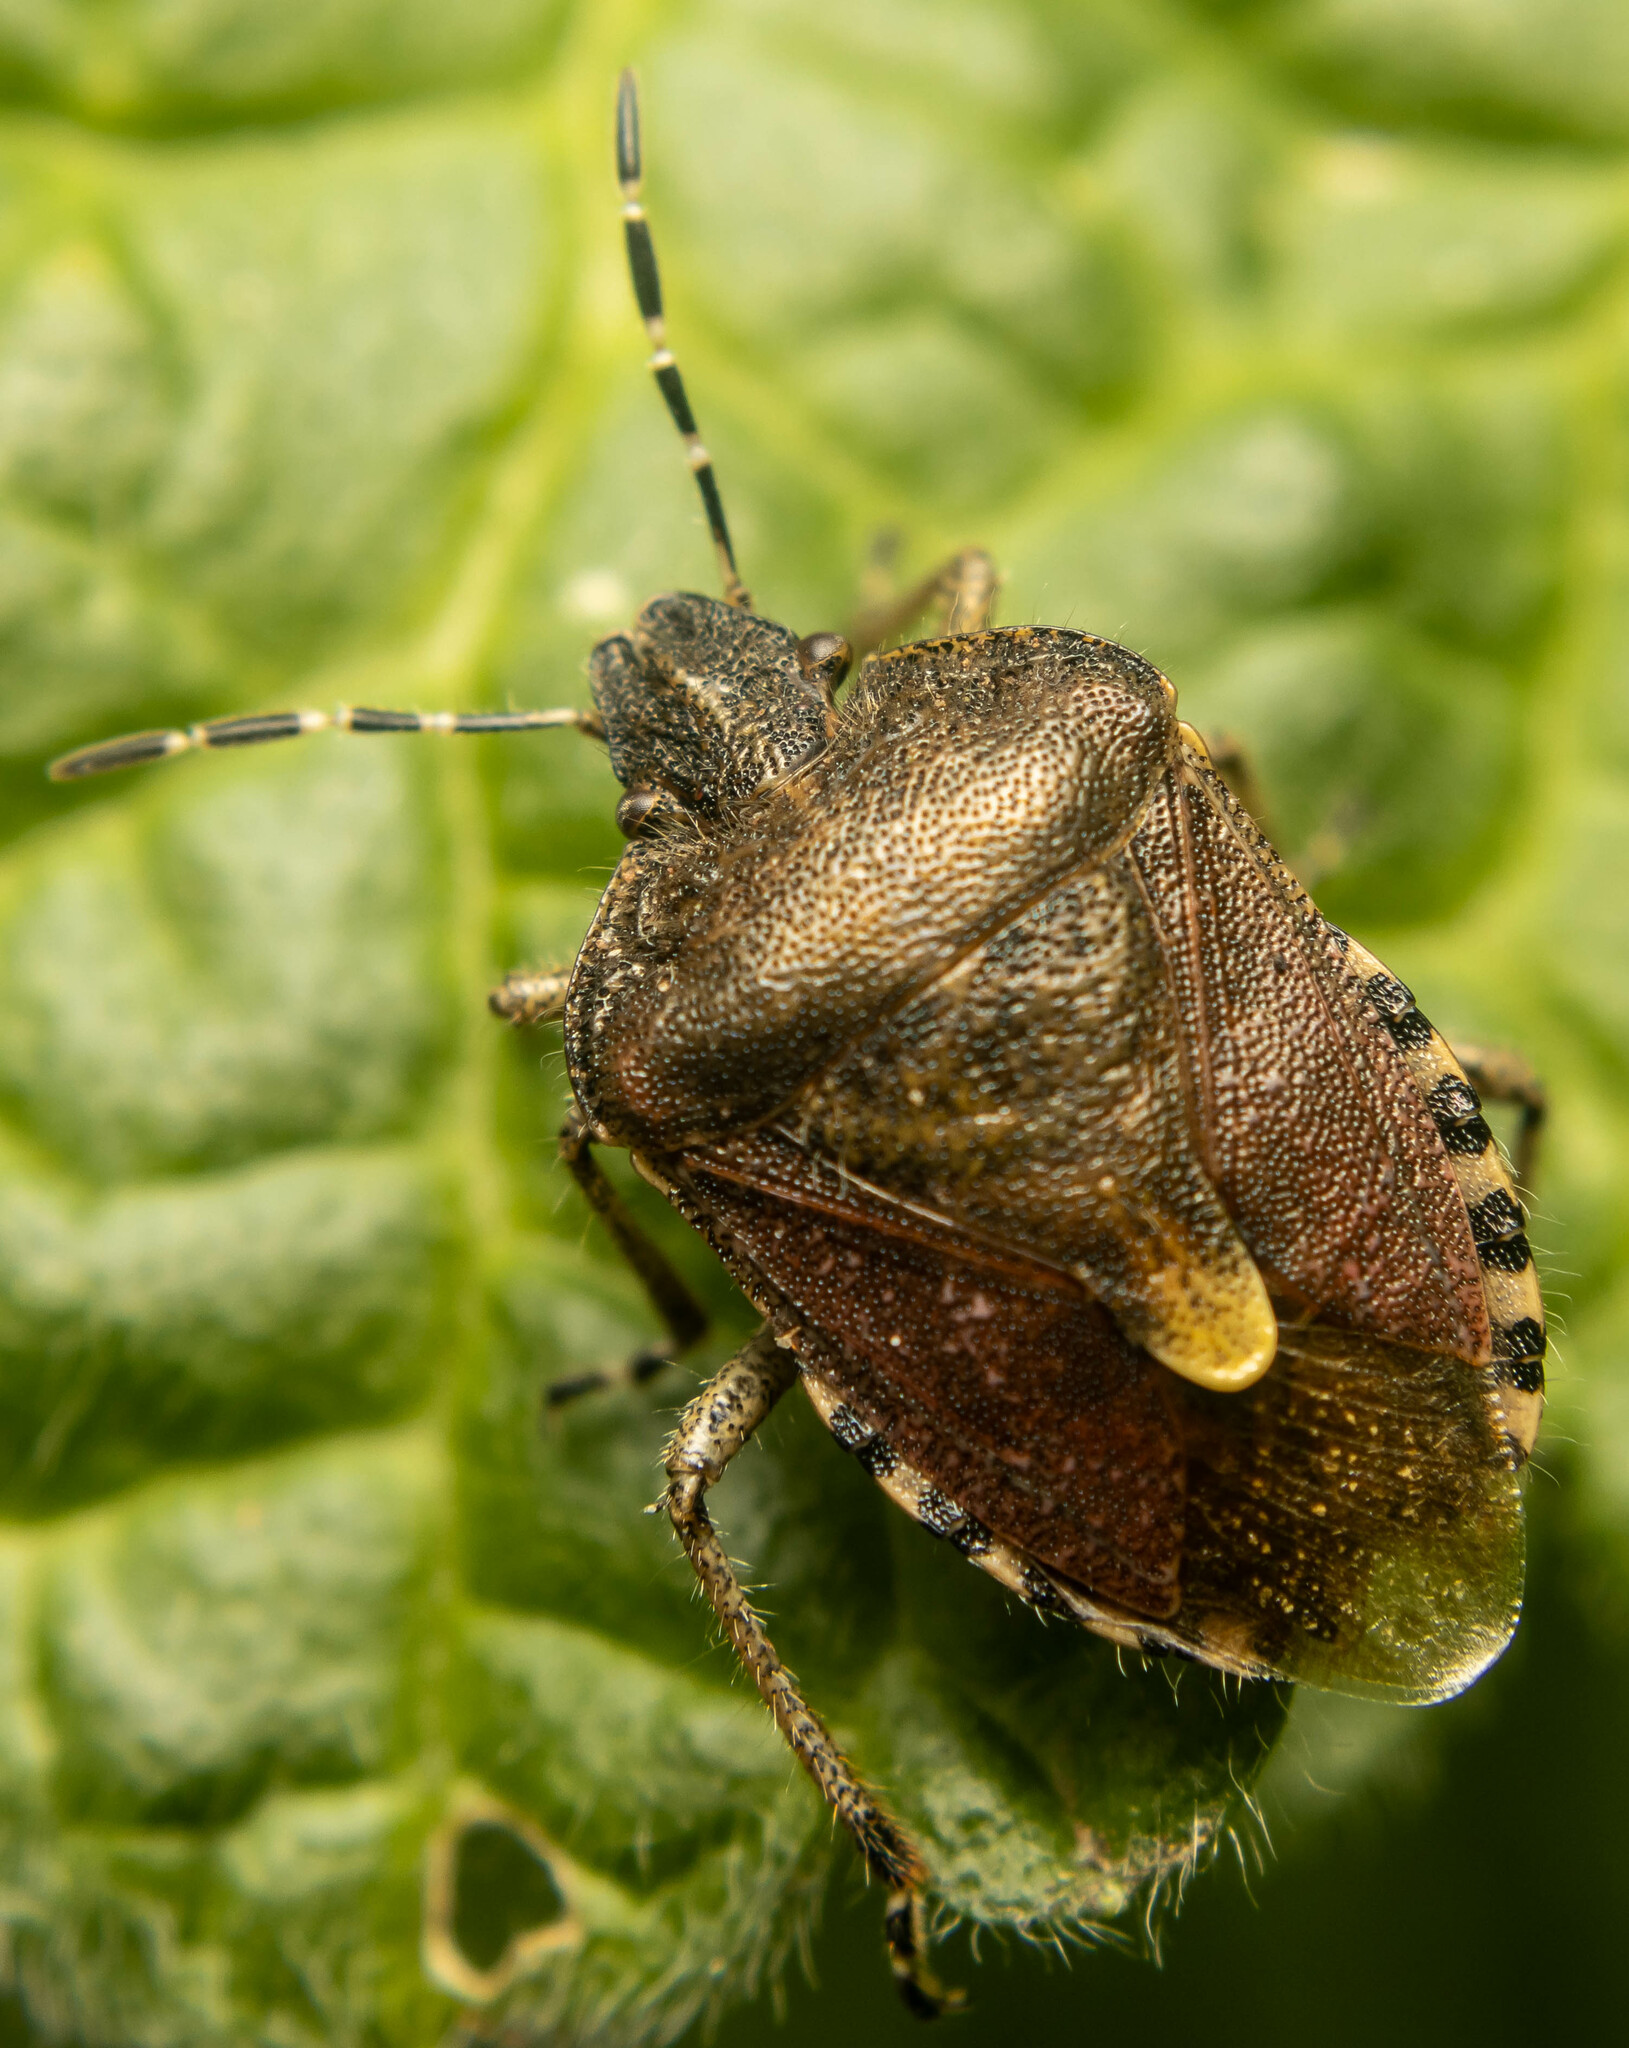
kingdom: Animalia
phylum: Arthropoda
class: Insecta
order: Hemiptera
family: Pentatomidae
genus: Dolycoris
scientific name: Dolycoris baccarum
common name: Sloe bug
